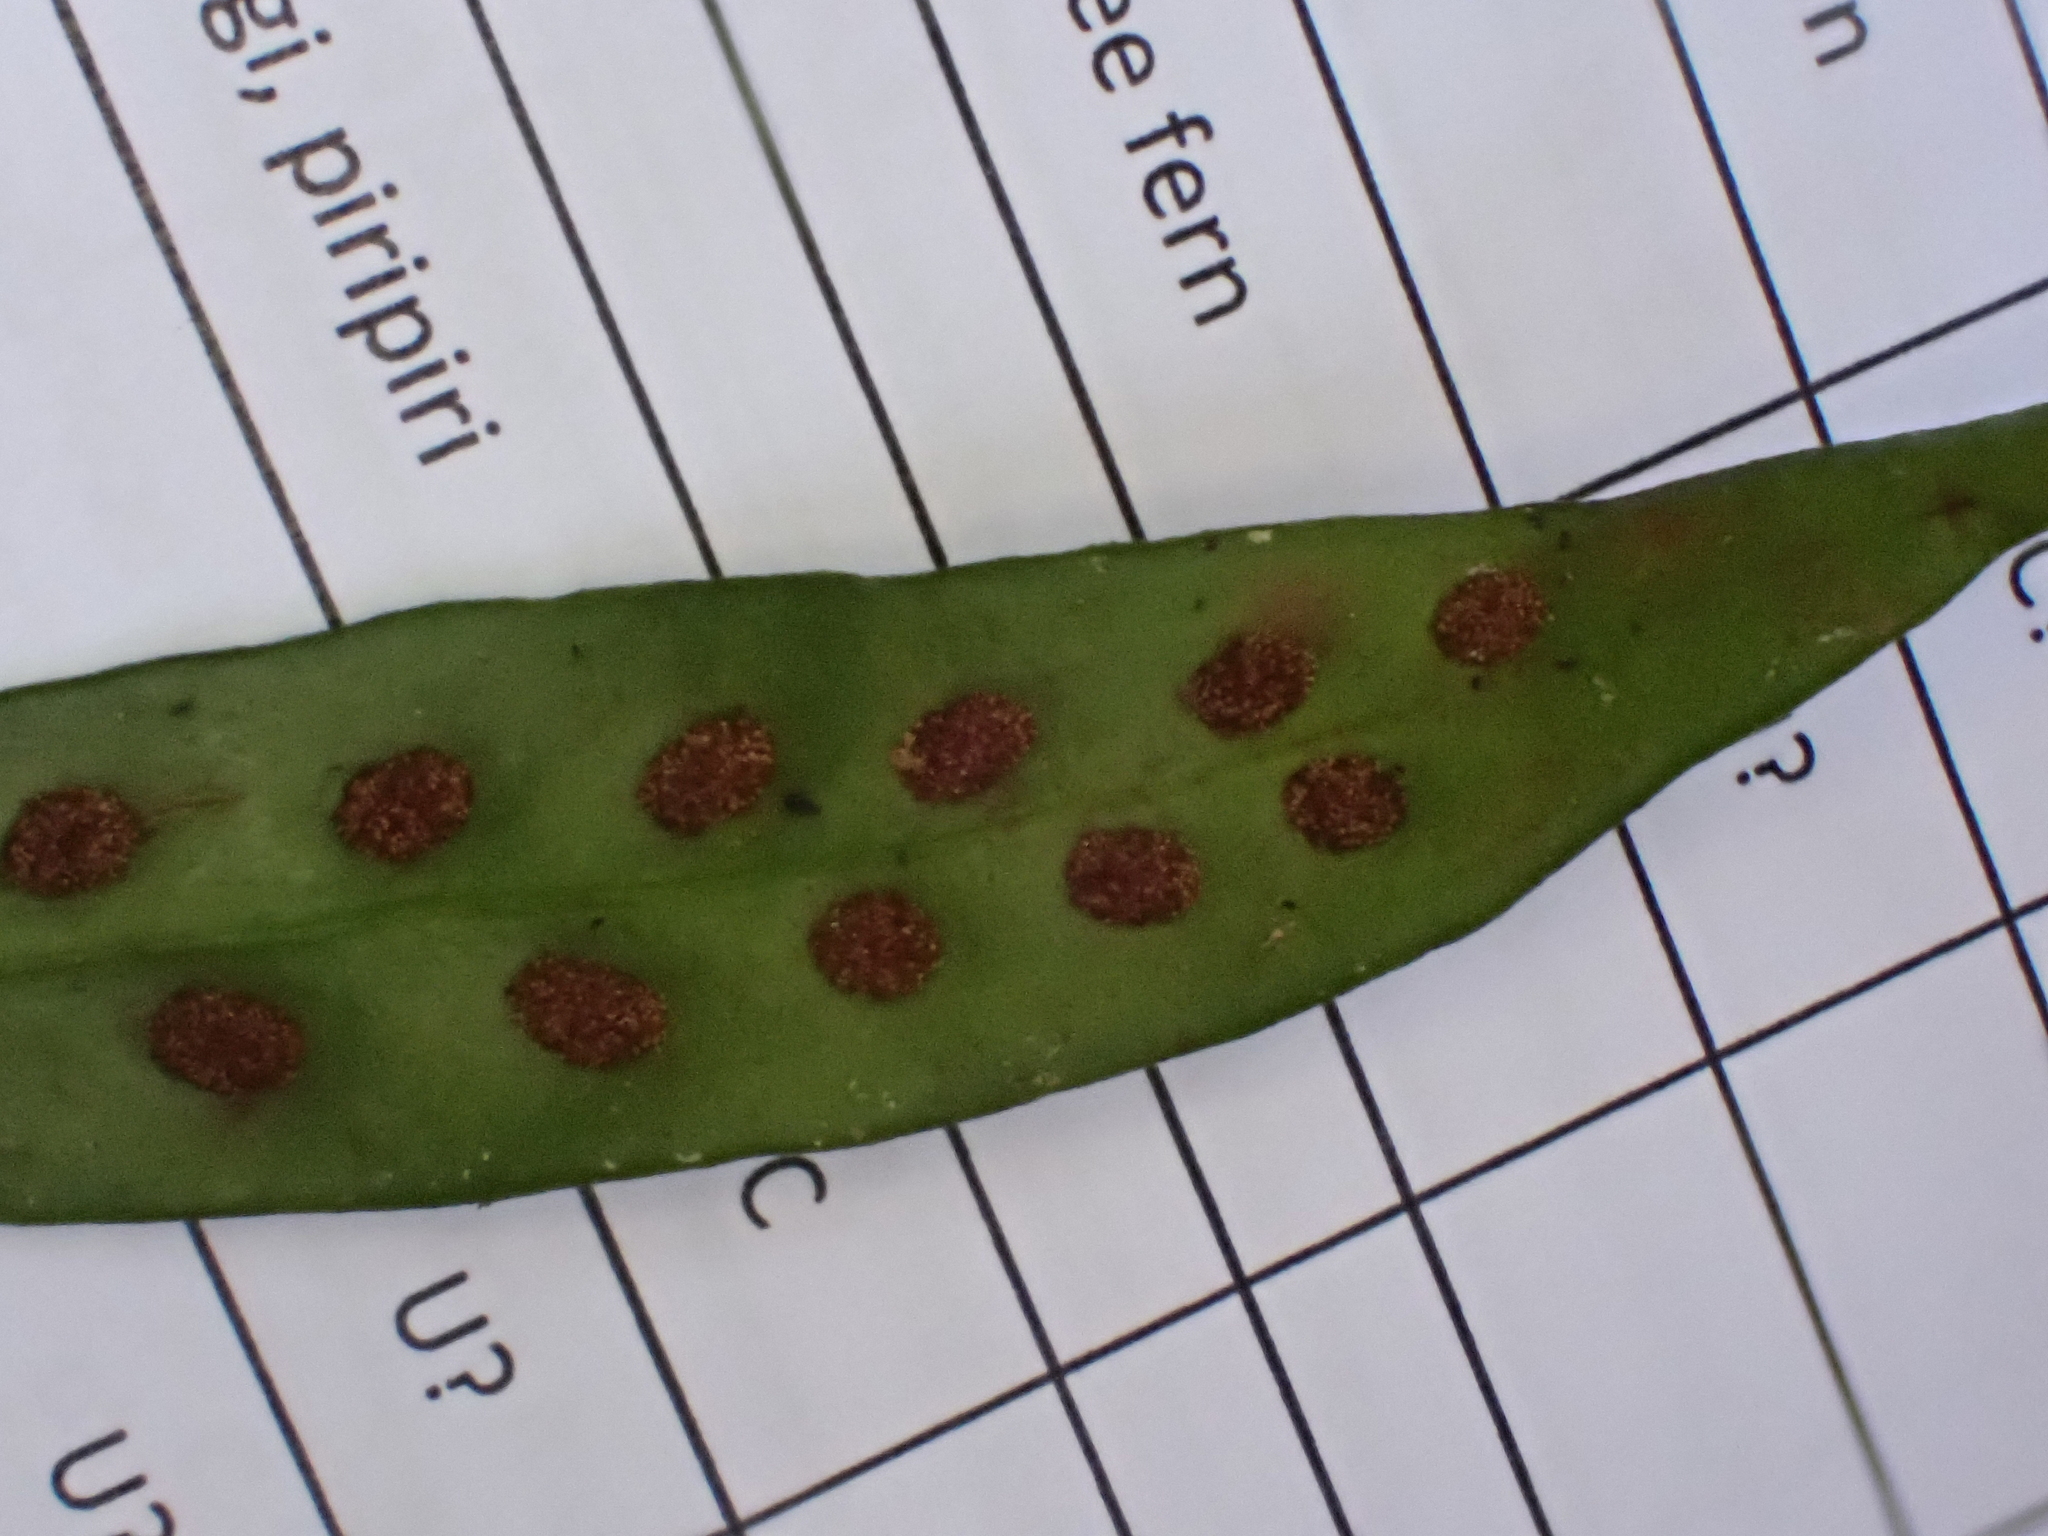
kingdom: Plantae
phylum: Tracheophyta
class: Polypodiopsida
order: Polypodiales
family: Polypodiaceae
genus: Loxogramme
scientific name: Loxogramme dictyopteris
